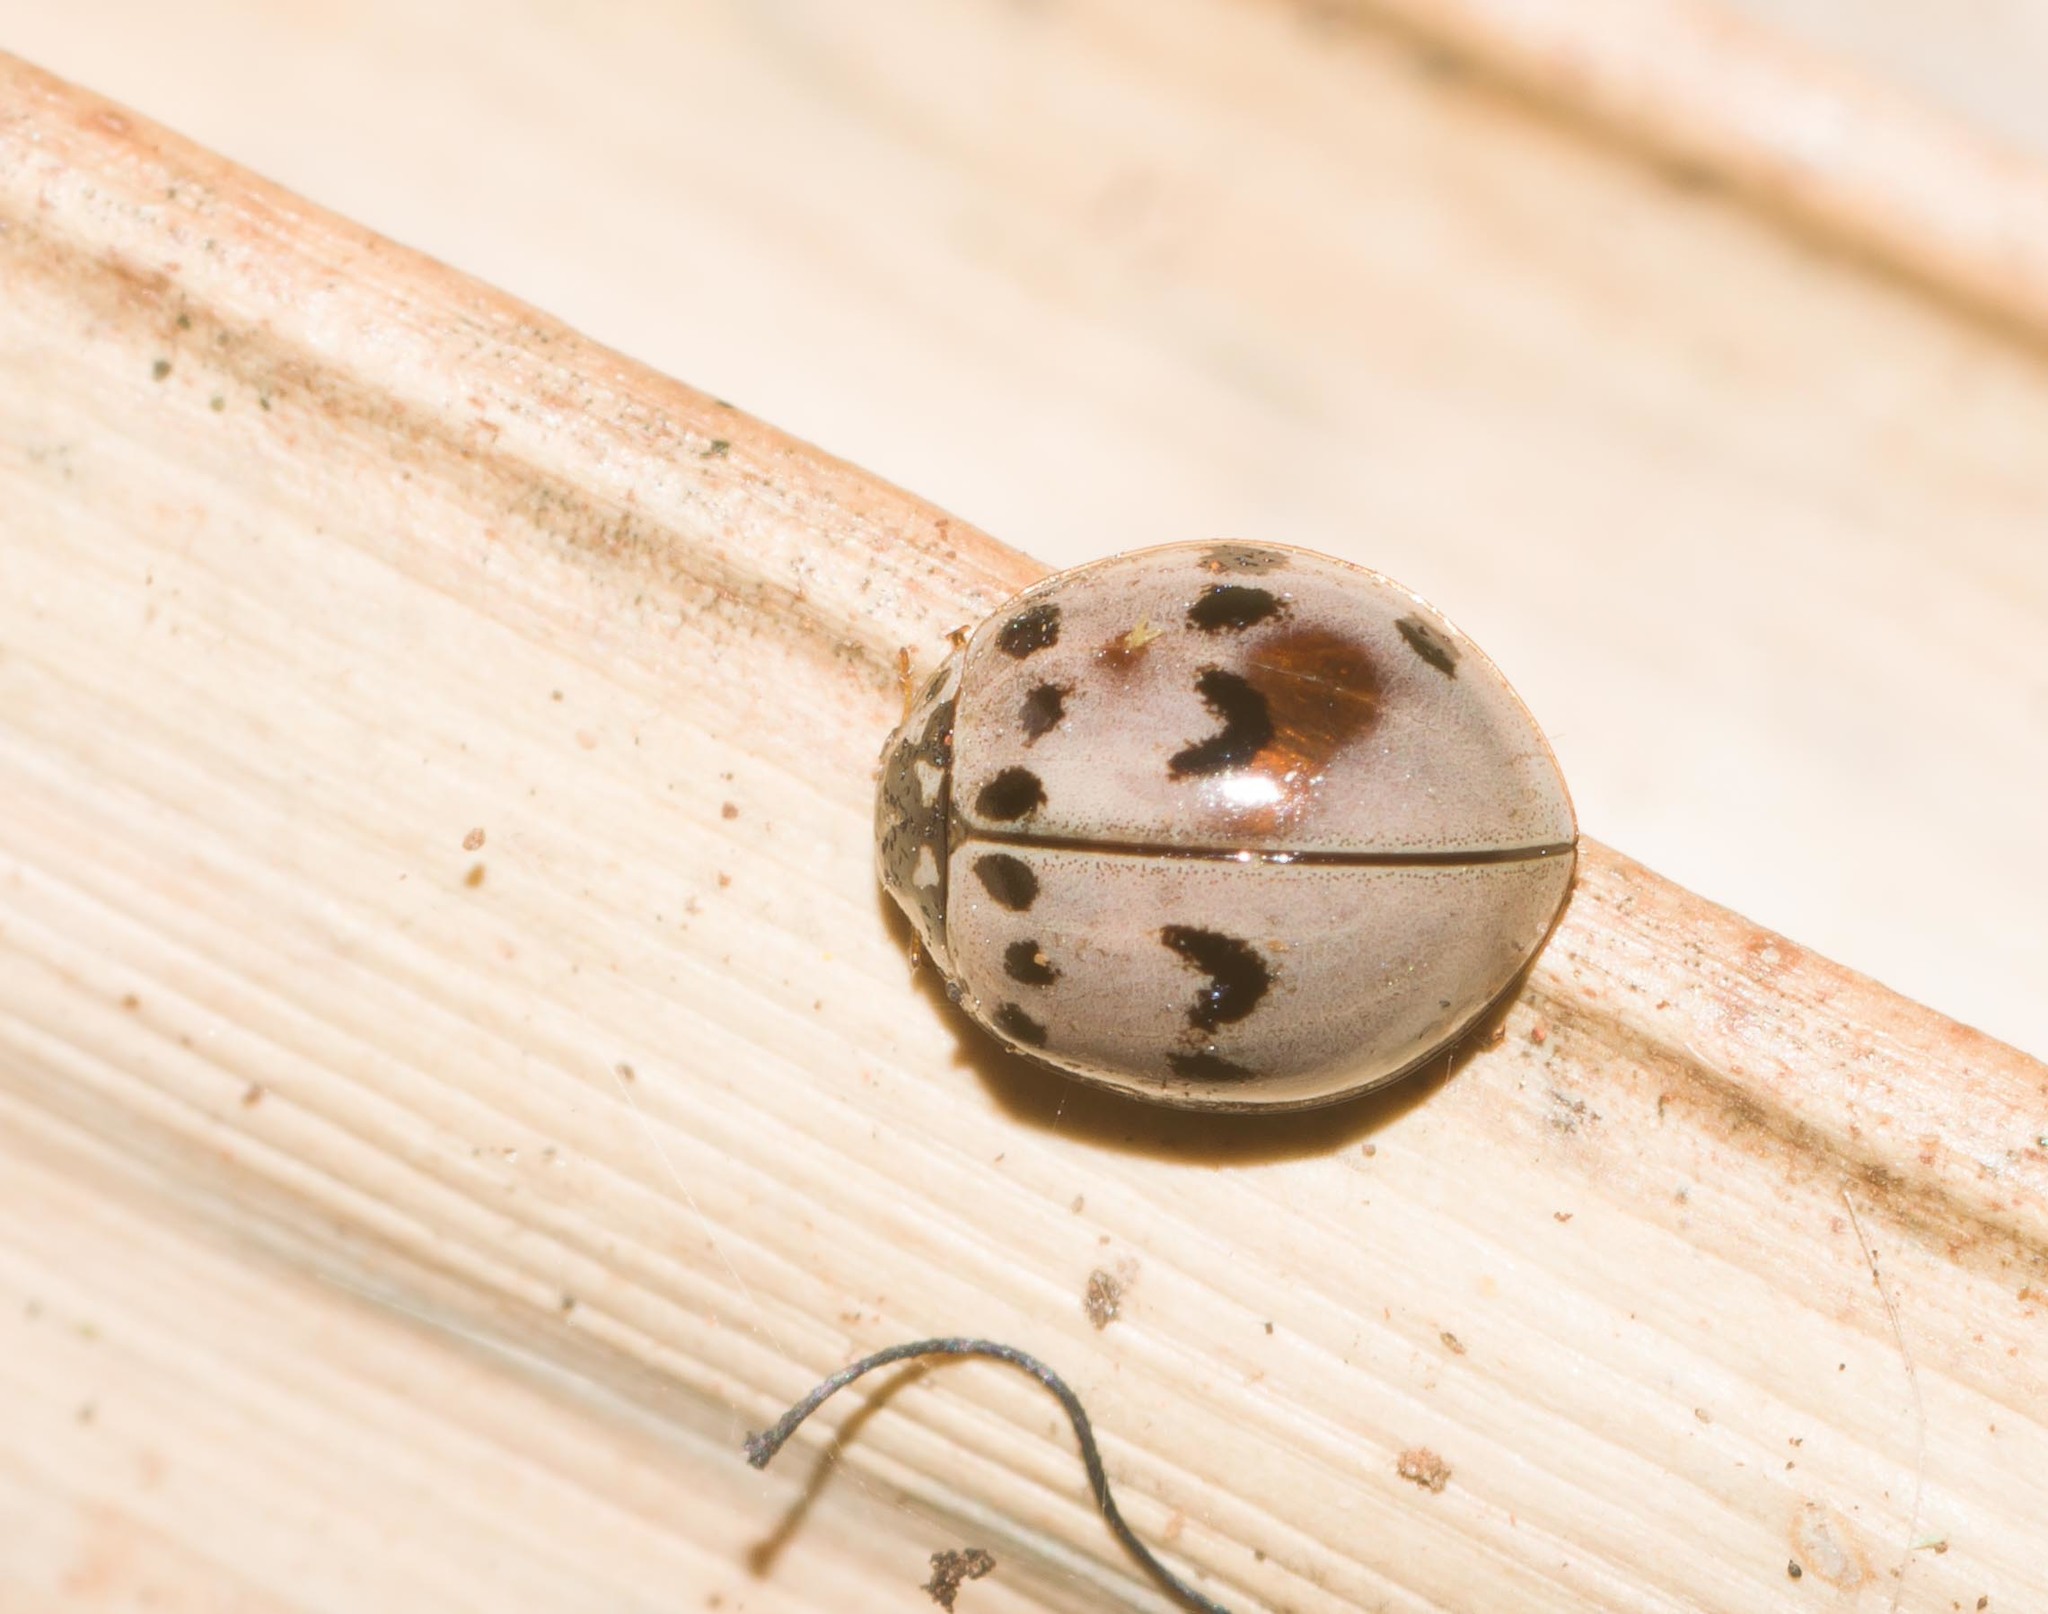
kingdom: Animalia
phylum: Arthropoda
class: Insecta
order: Coleoptera
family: Coccinellidae
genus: Olla
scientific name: Olla v-nigrum
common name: Ashy gray lady beetle
